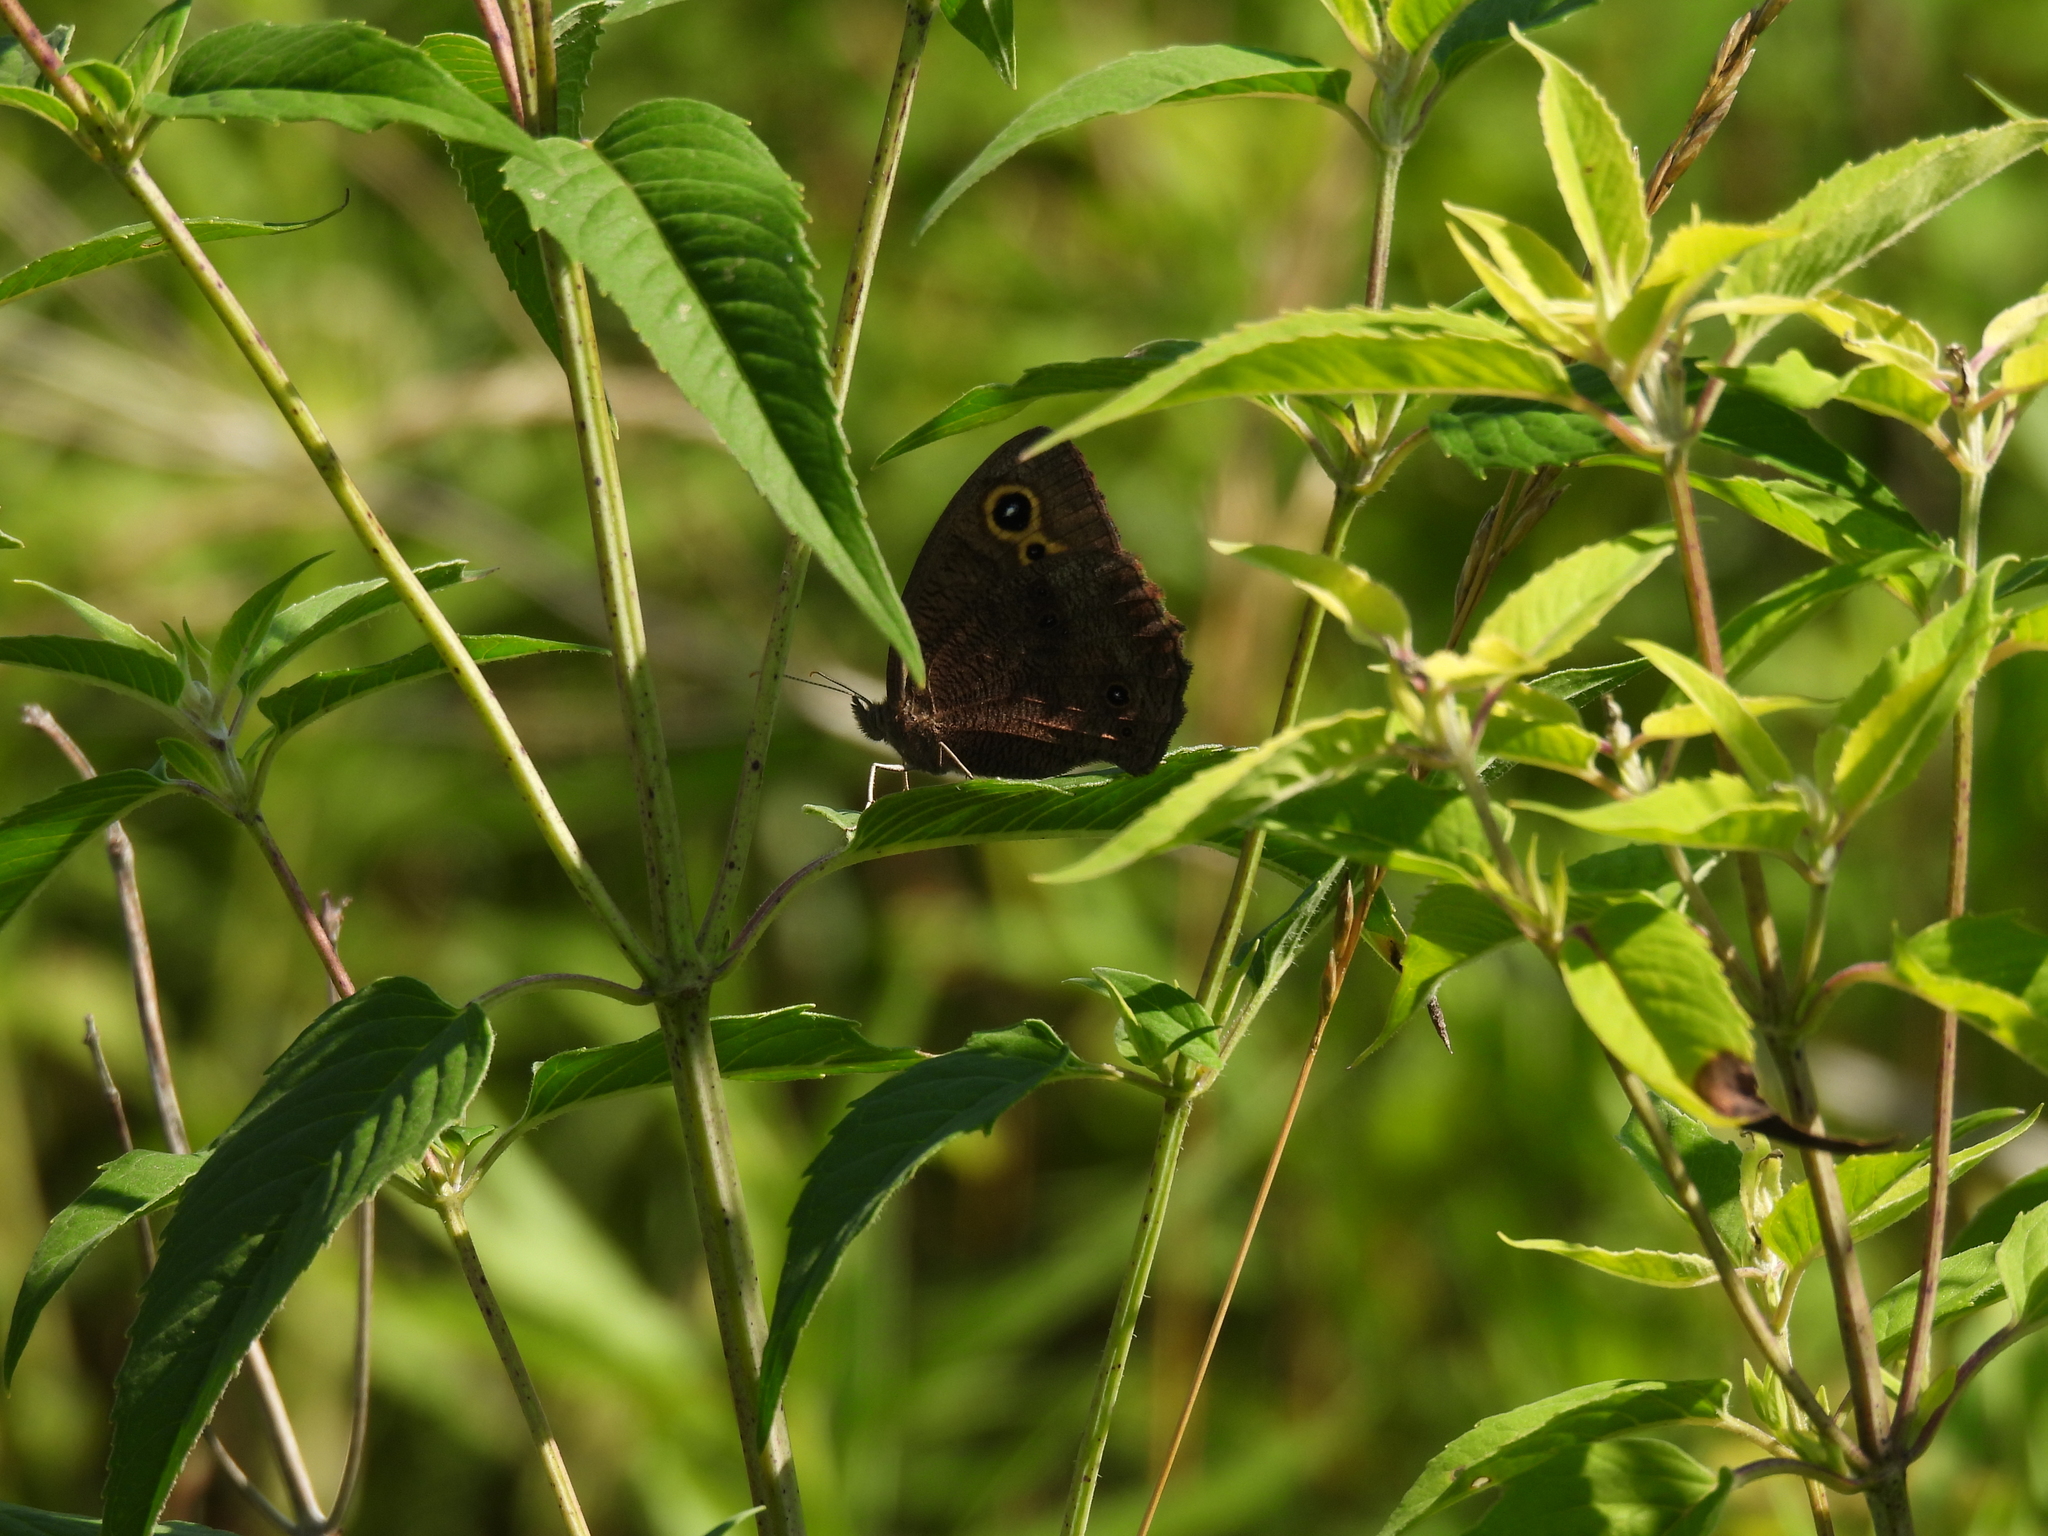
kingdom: Animalia
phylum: Arthropoda
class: Insecta
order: Lepidoptera
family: Nymphalidae
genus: Cercyonis
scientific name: Cercyonis pegala
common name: Common wood-nymph
